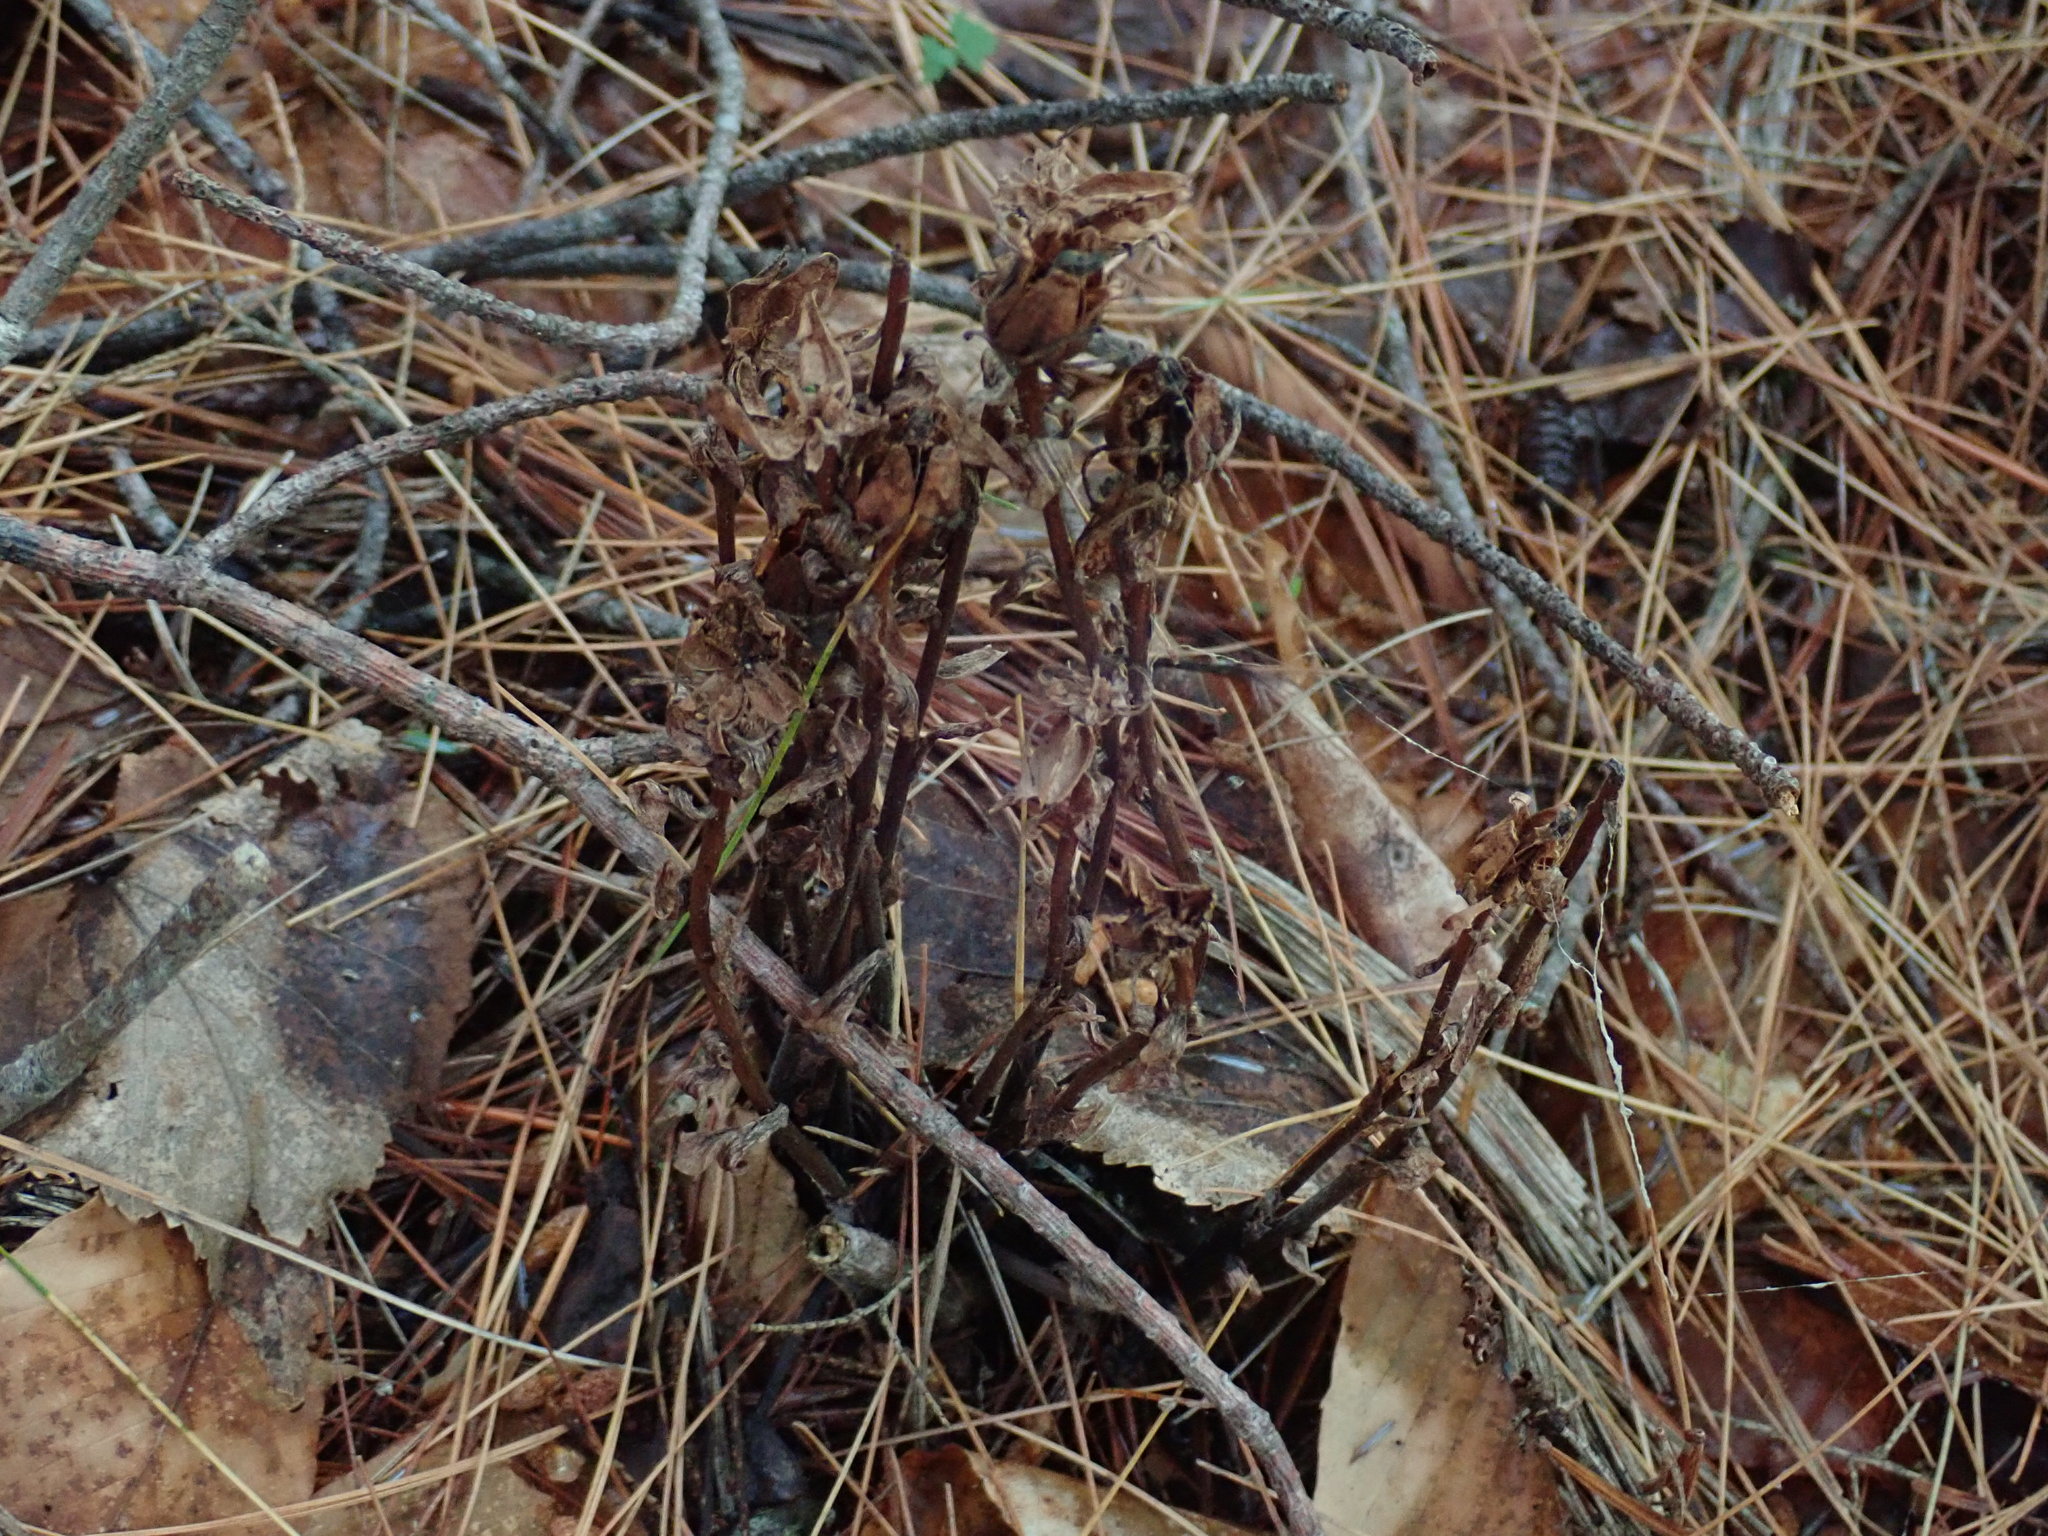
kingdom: Plantae
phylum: Tracheophyta
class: Magnoliopsida
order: Ericales
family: Ericaceae
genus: Monotropa
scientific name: Monotropa uniflora
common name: Convulsion root
